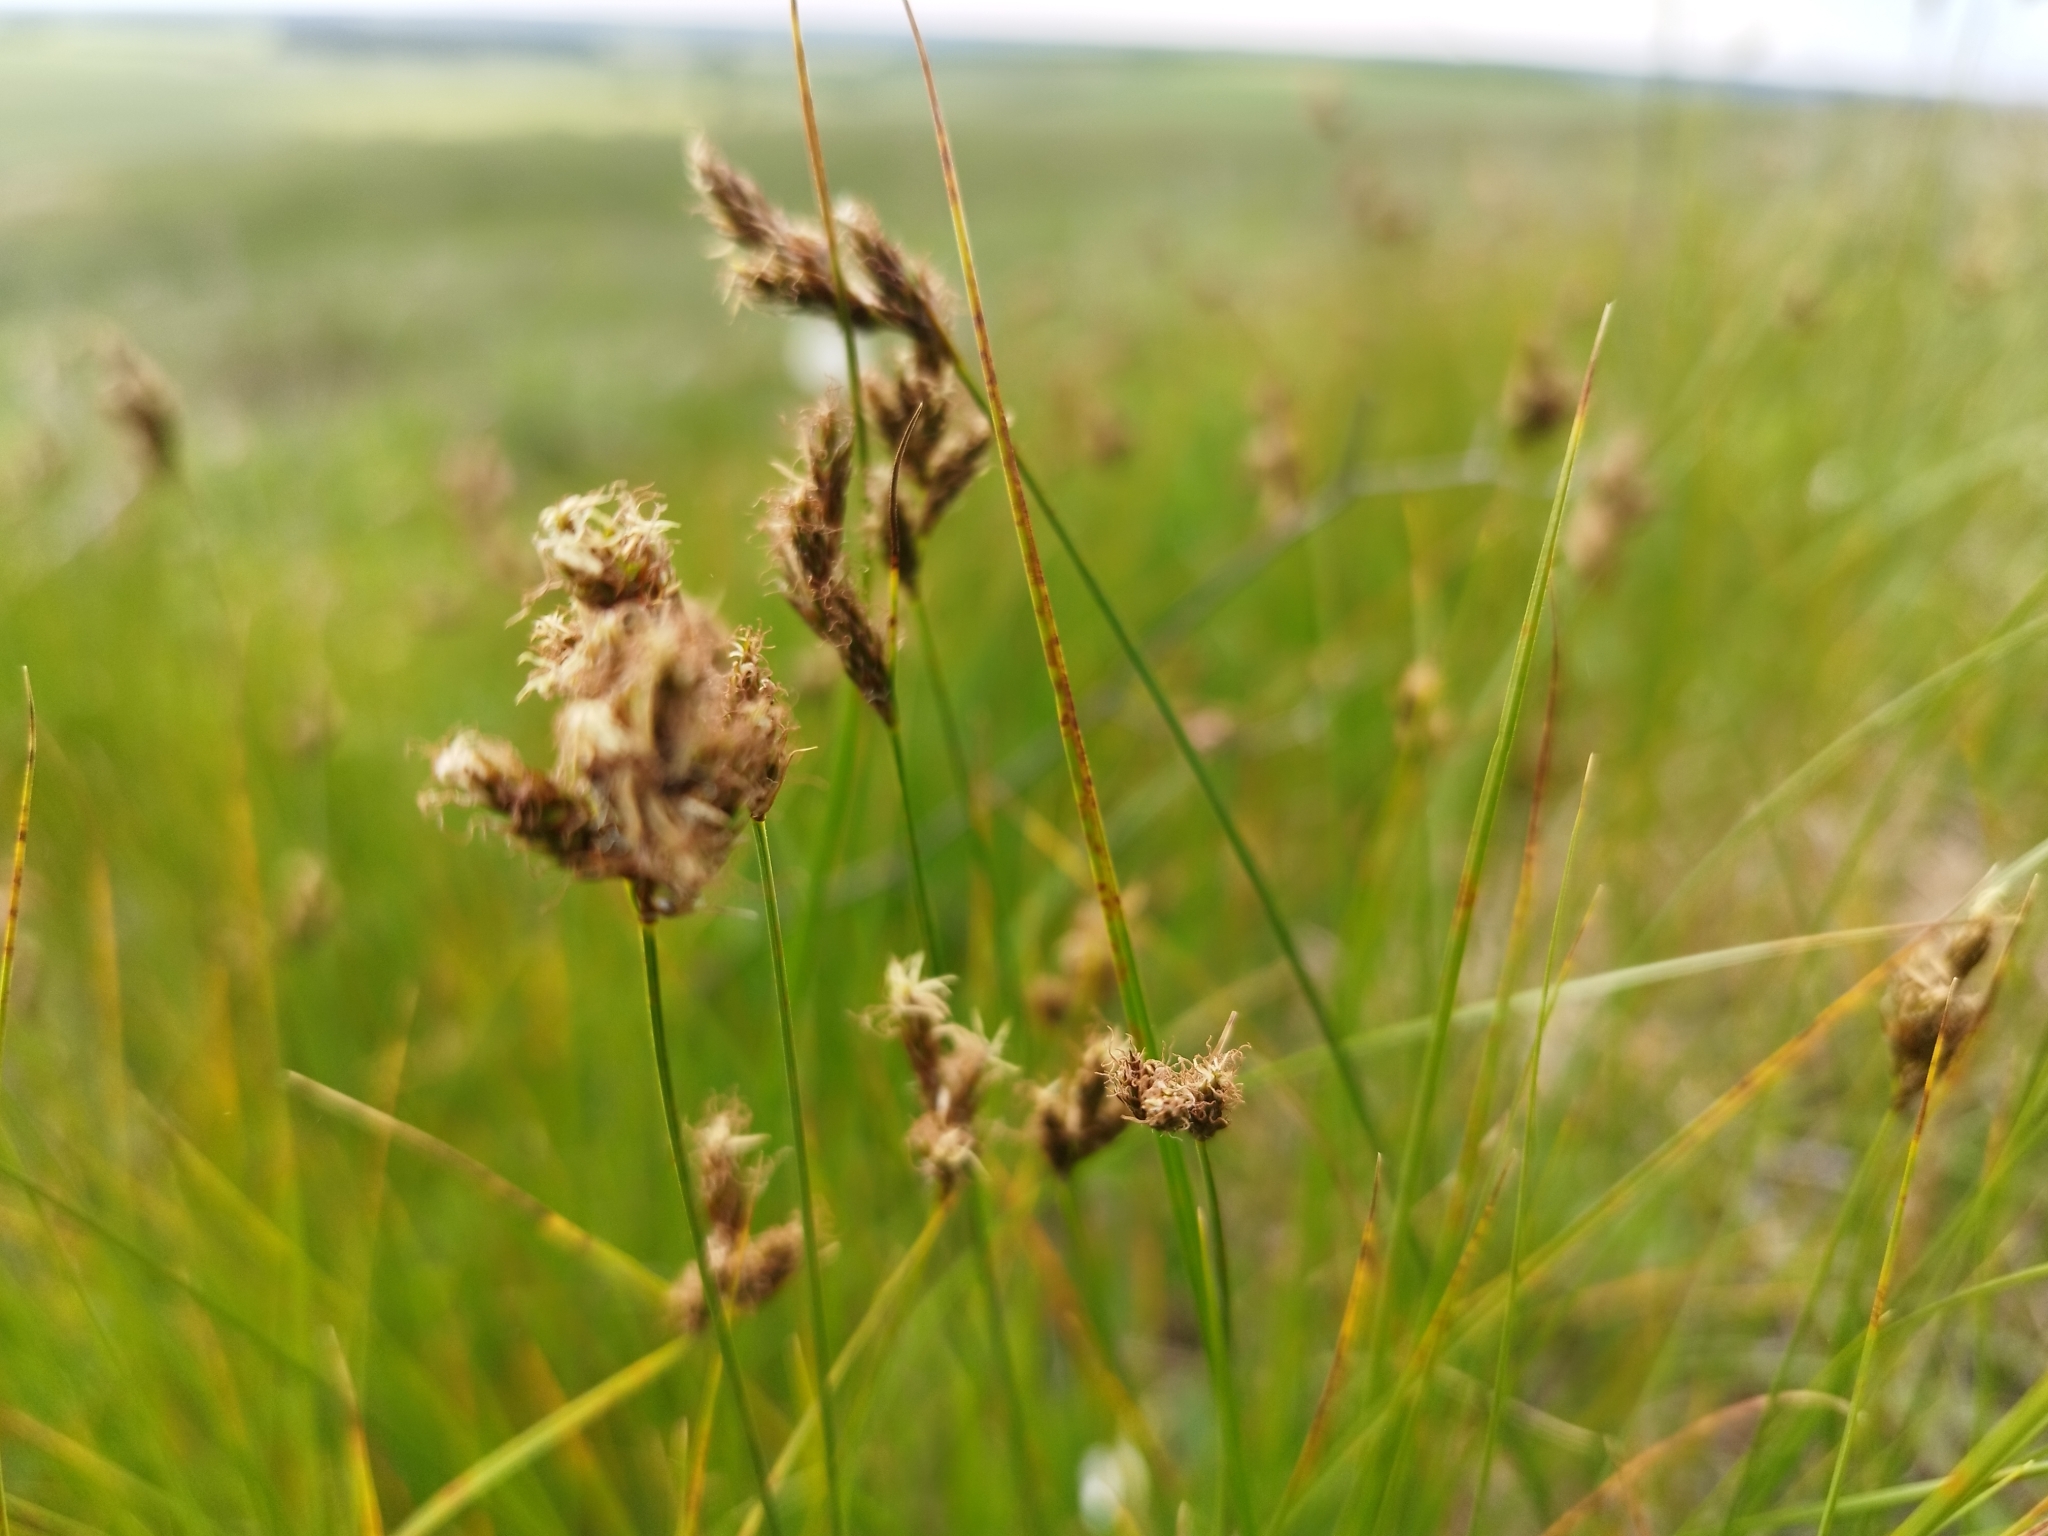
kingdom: Plantae
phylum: Tracheophyta
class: Liliopsida
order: Poales
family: Cyperaceae
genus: Carex
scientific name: Carex praecox
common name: Early sedge
